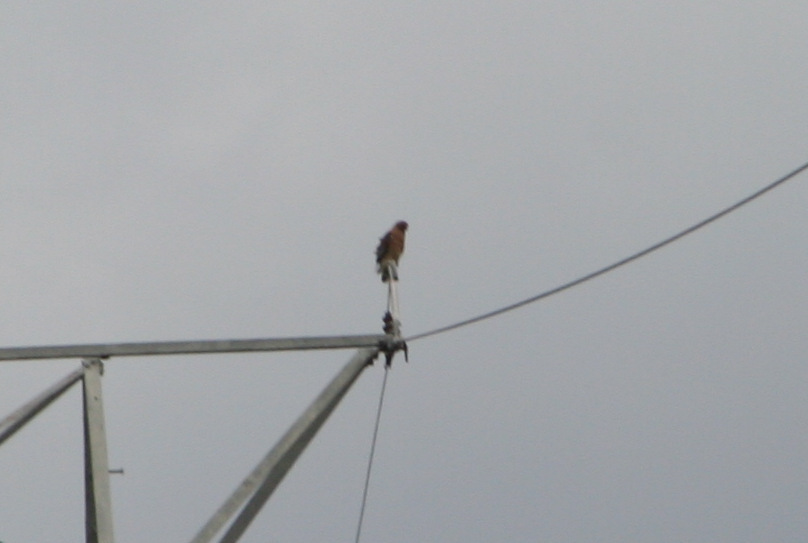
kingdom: Animalia
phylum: Chordata
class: Aves
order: Accipitriformes
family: Accipitridae
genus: Buteo
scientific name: Buteo lineatus
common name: Red-shouldered hawk
